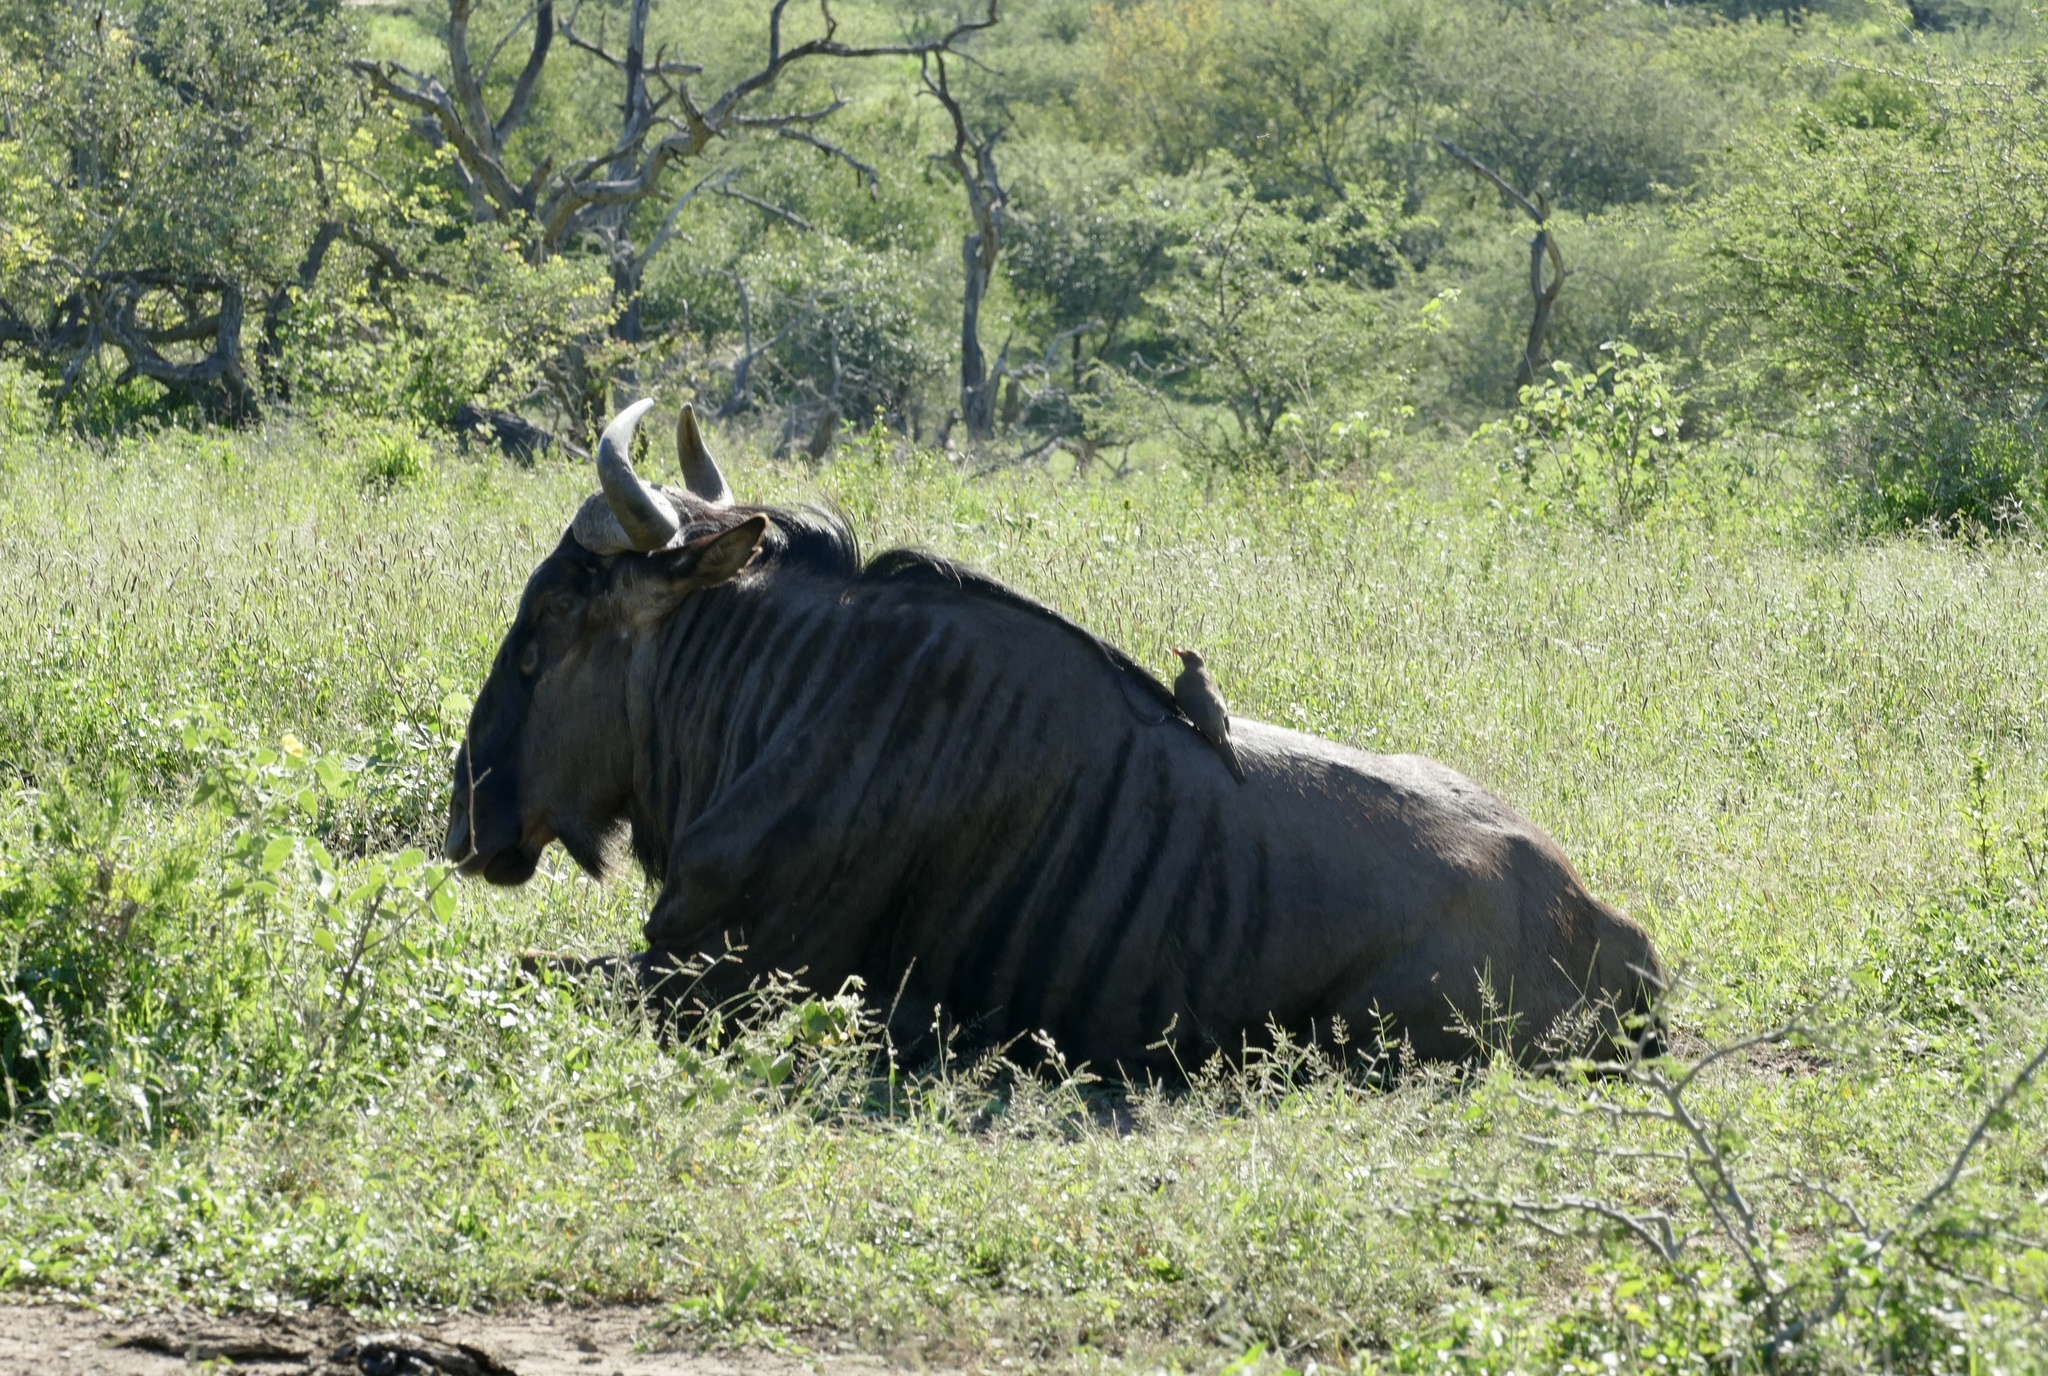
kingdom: Animalia
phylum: Chordata
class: Mammalia
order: Artiodactyla
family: Bovidae
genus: Connochaetes
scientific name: Connochaetes taurinus
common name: Blue wildebeest
